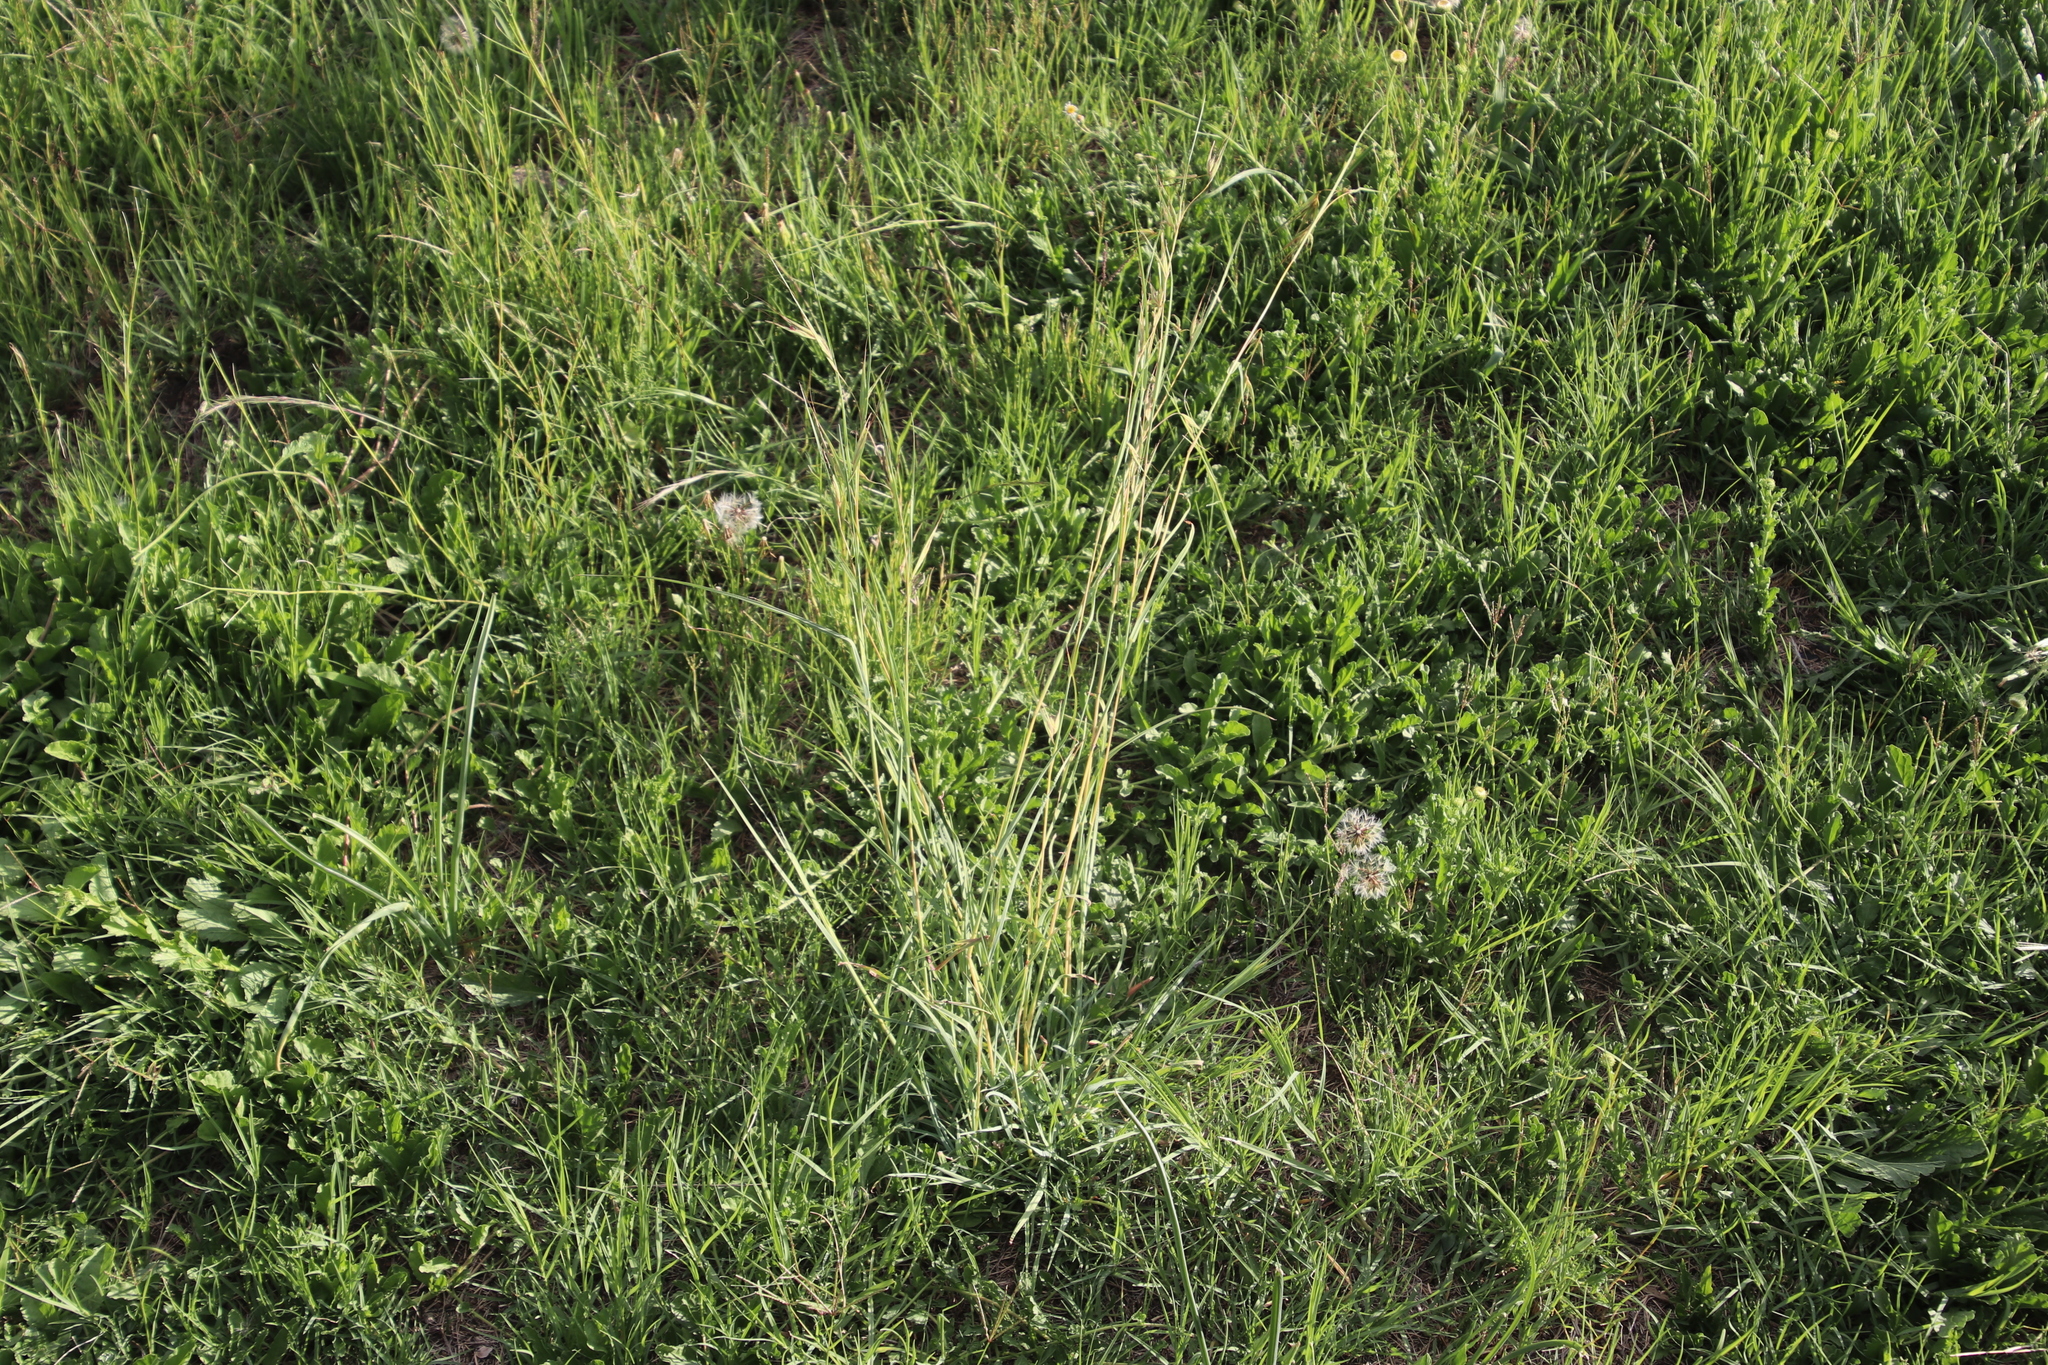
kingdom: Plantae
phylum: Tracheophyta
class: Liliopsida
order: Poales
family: Poaceae
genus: Themeda
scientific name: Themeda triandra
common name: Kangaroo grass
